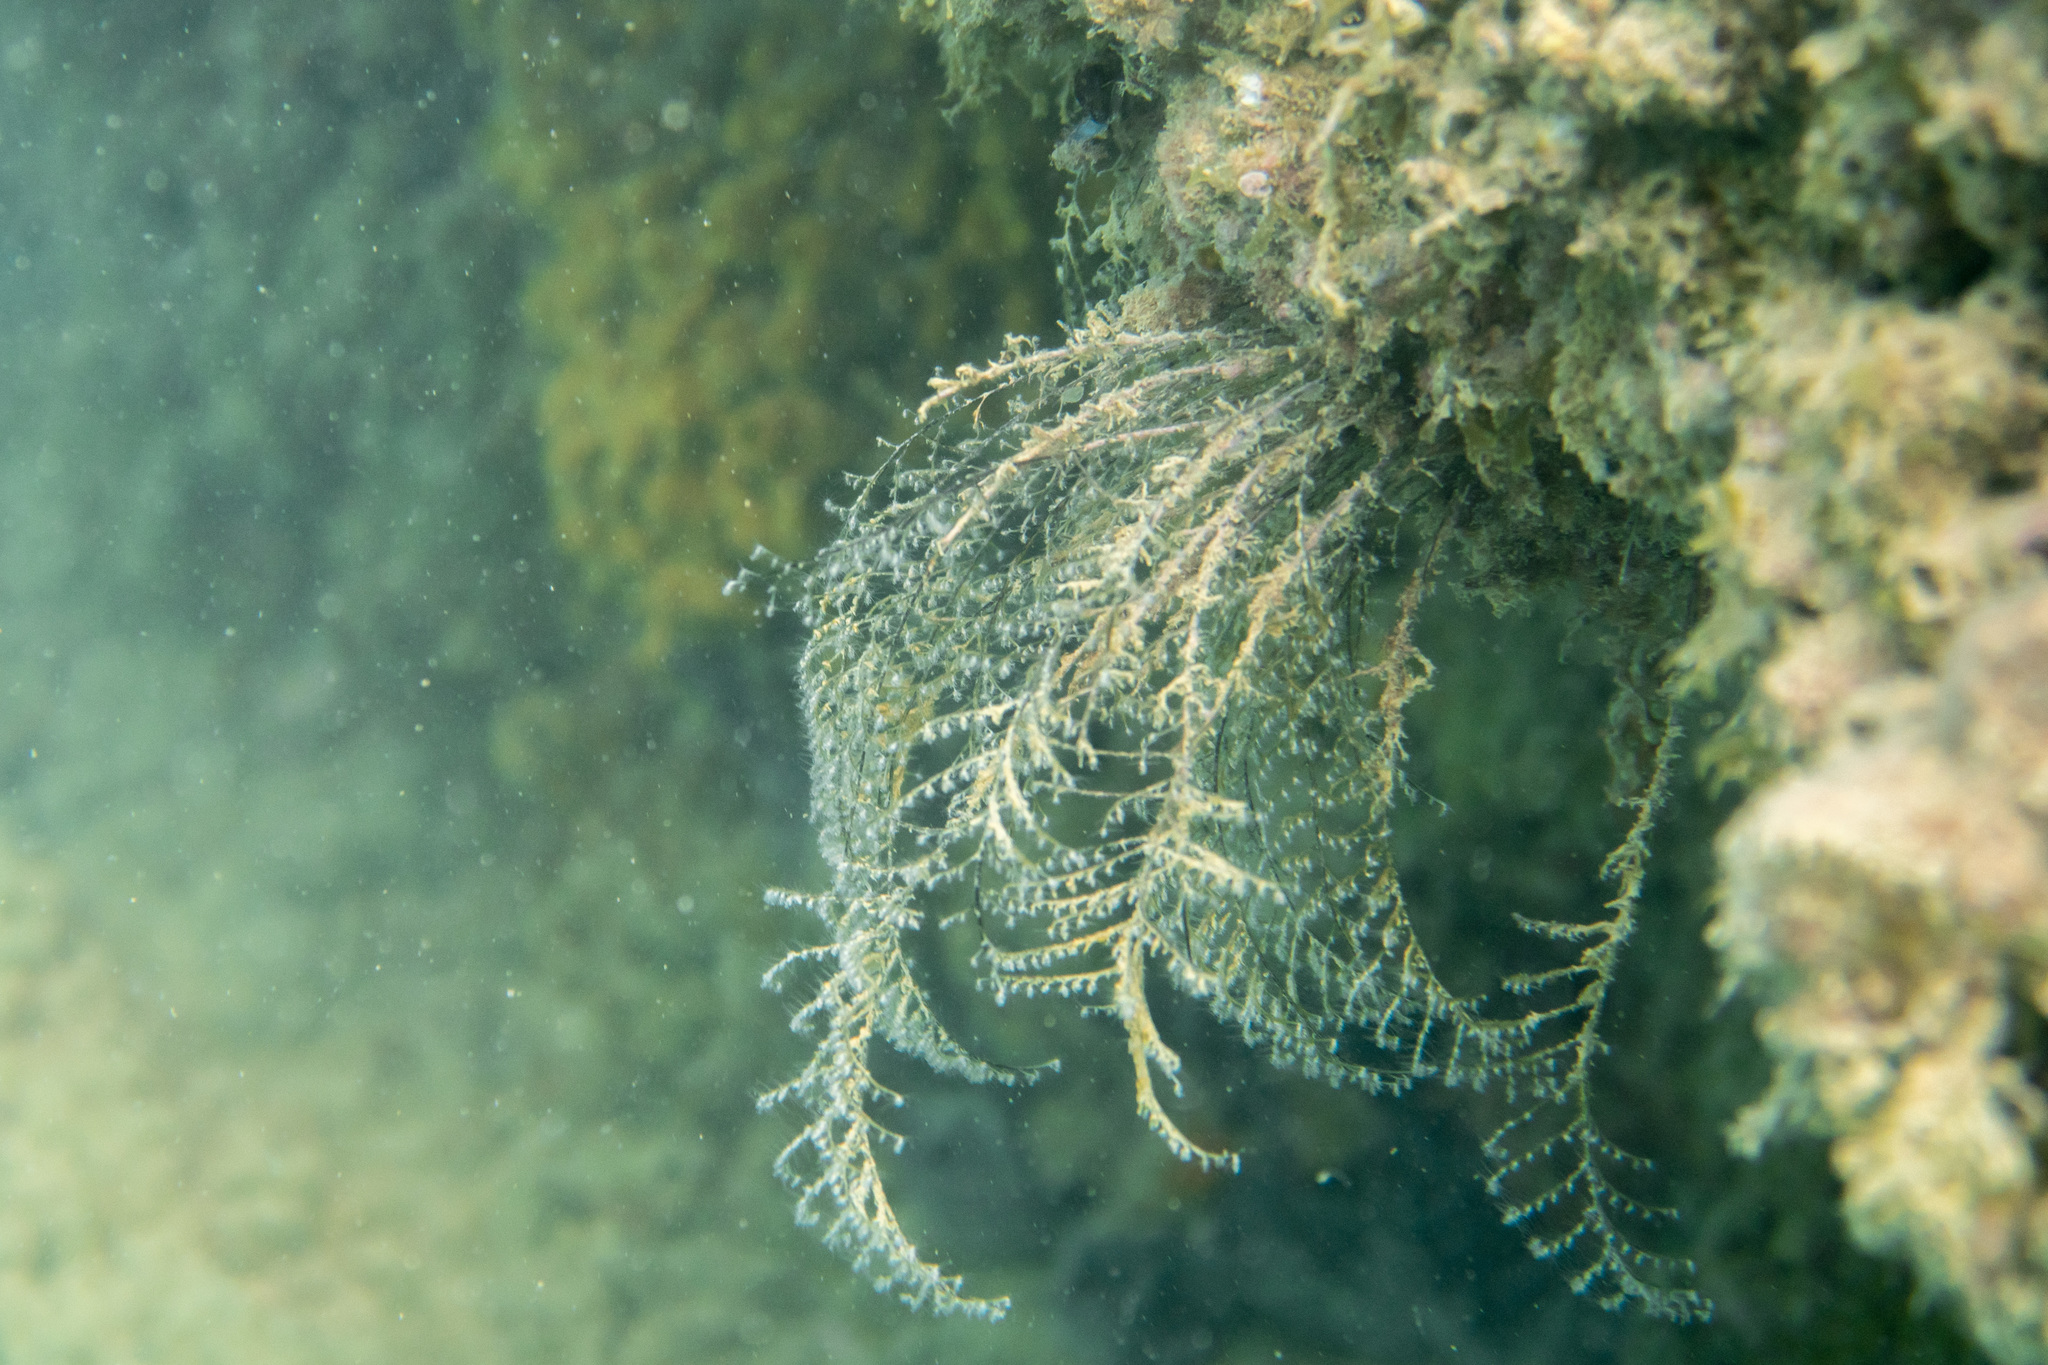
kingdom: Animalia
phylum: Cnidaria
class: Hydrozoa
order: Anthoathecata
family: Pennariidae
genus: Pennaria
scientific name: Pennaria disticha
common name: Feather hydroid
